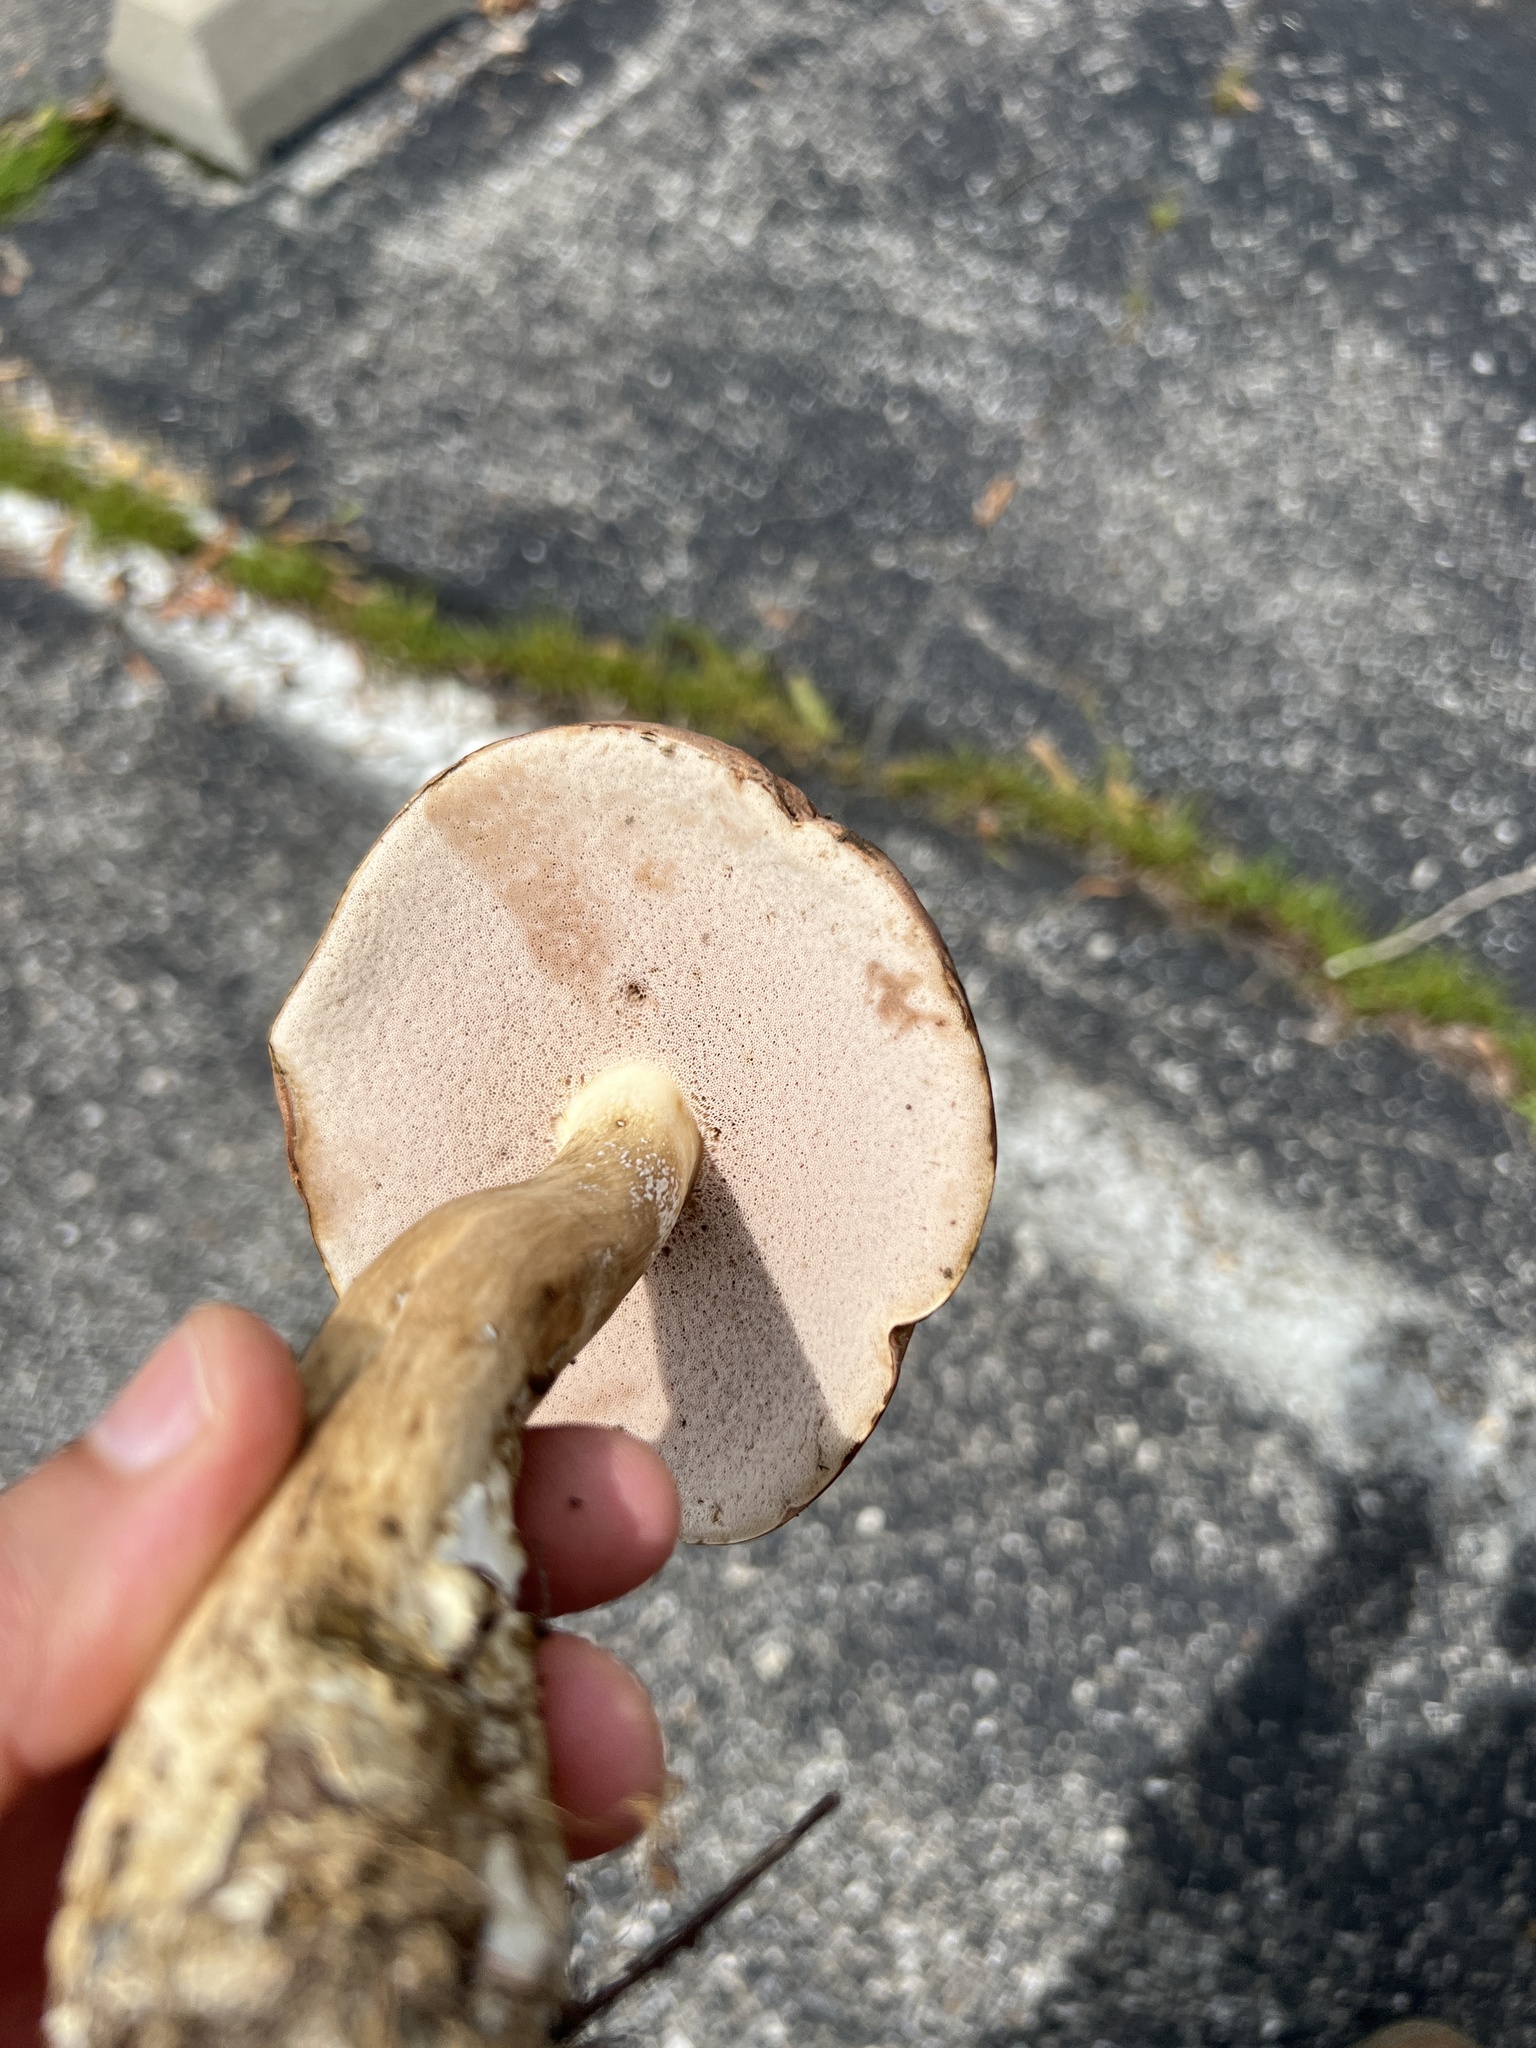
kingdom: Fungi
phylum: Basidiomycota
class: Agaricomycetes
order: Boletales
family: Boletaceae
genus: Tylopilus
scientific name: Tylopilus rubrobrunneus
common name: Reddish brown bitter bolete
